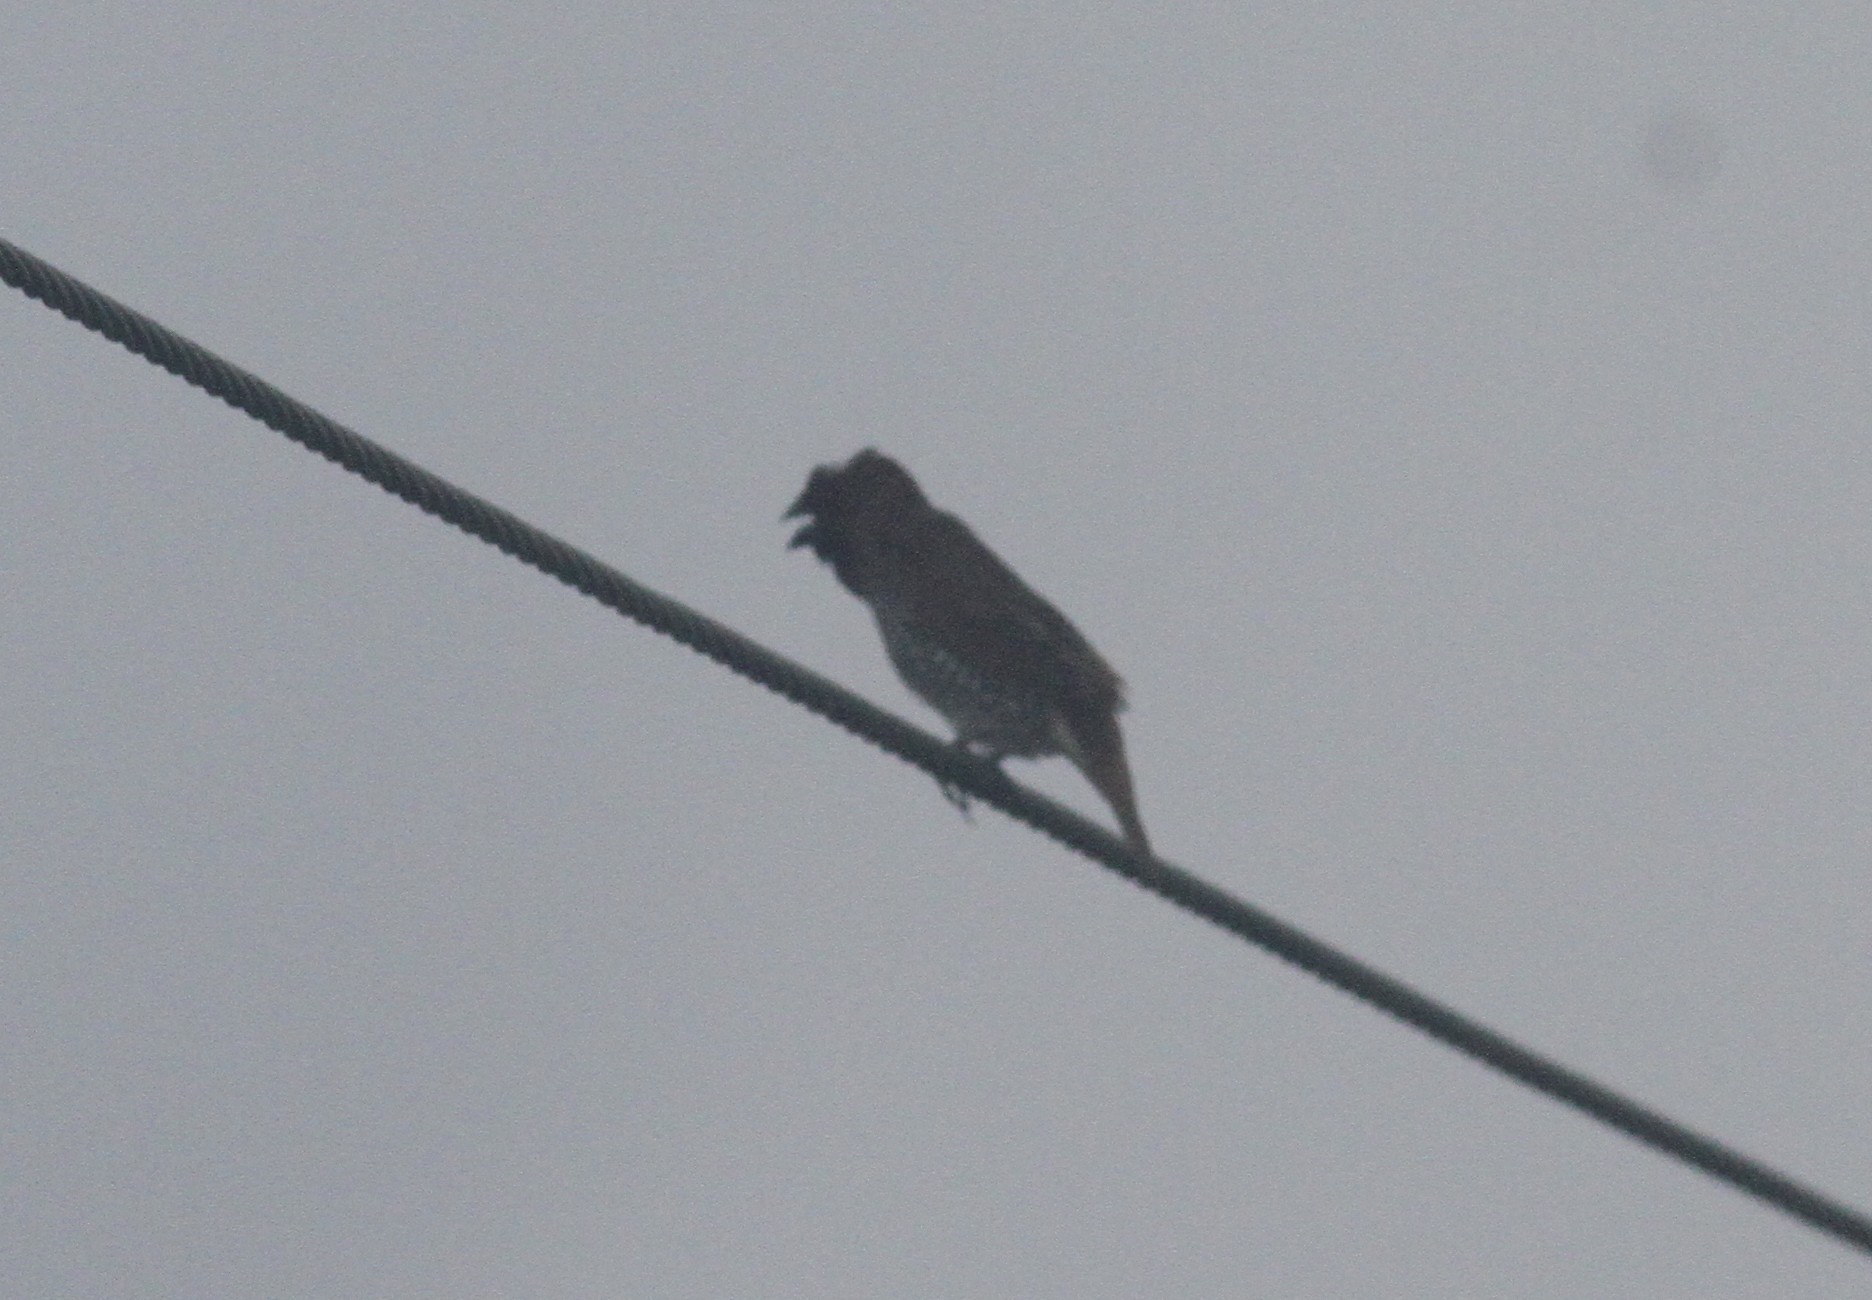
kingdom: Animalia
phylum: Chordata
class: Aves
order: Passeriformes
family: Estrildidae
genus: Lonchura
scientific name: Lonchura punctulata
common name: Scaly-breasted munia
